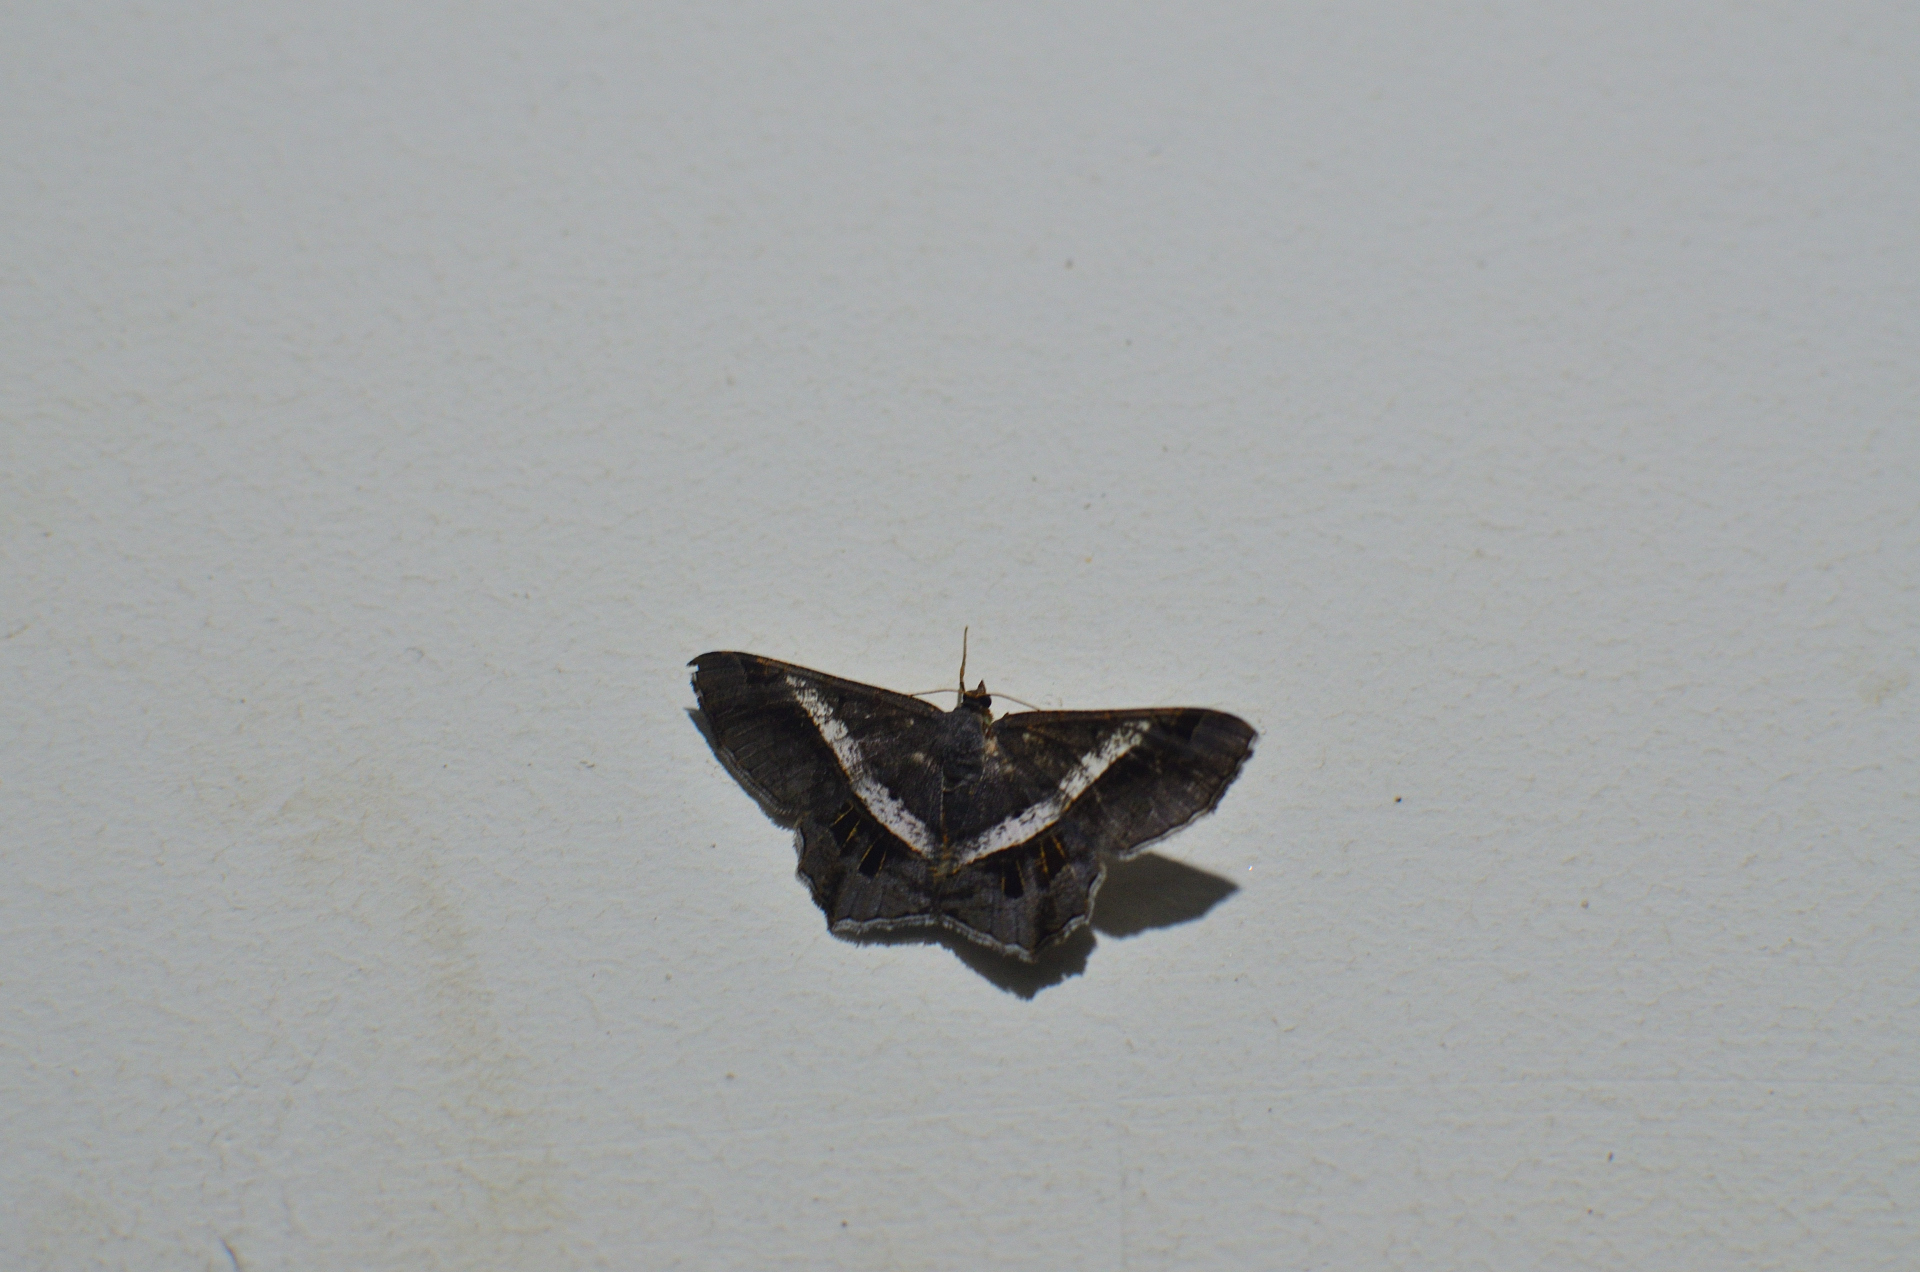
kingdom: Animalia
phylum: Arthropoda
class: Insecta
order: Lepidoptera
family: Geometridae
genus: Chiasmia
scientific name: Chiasmia nora
